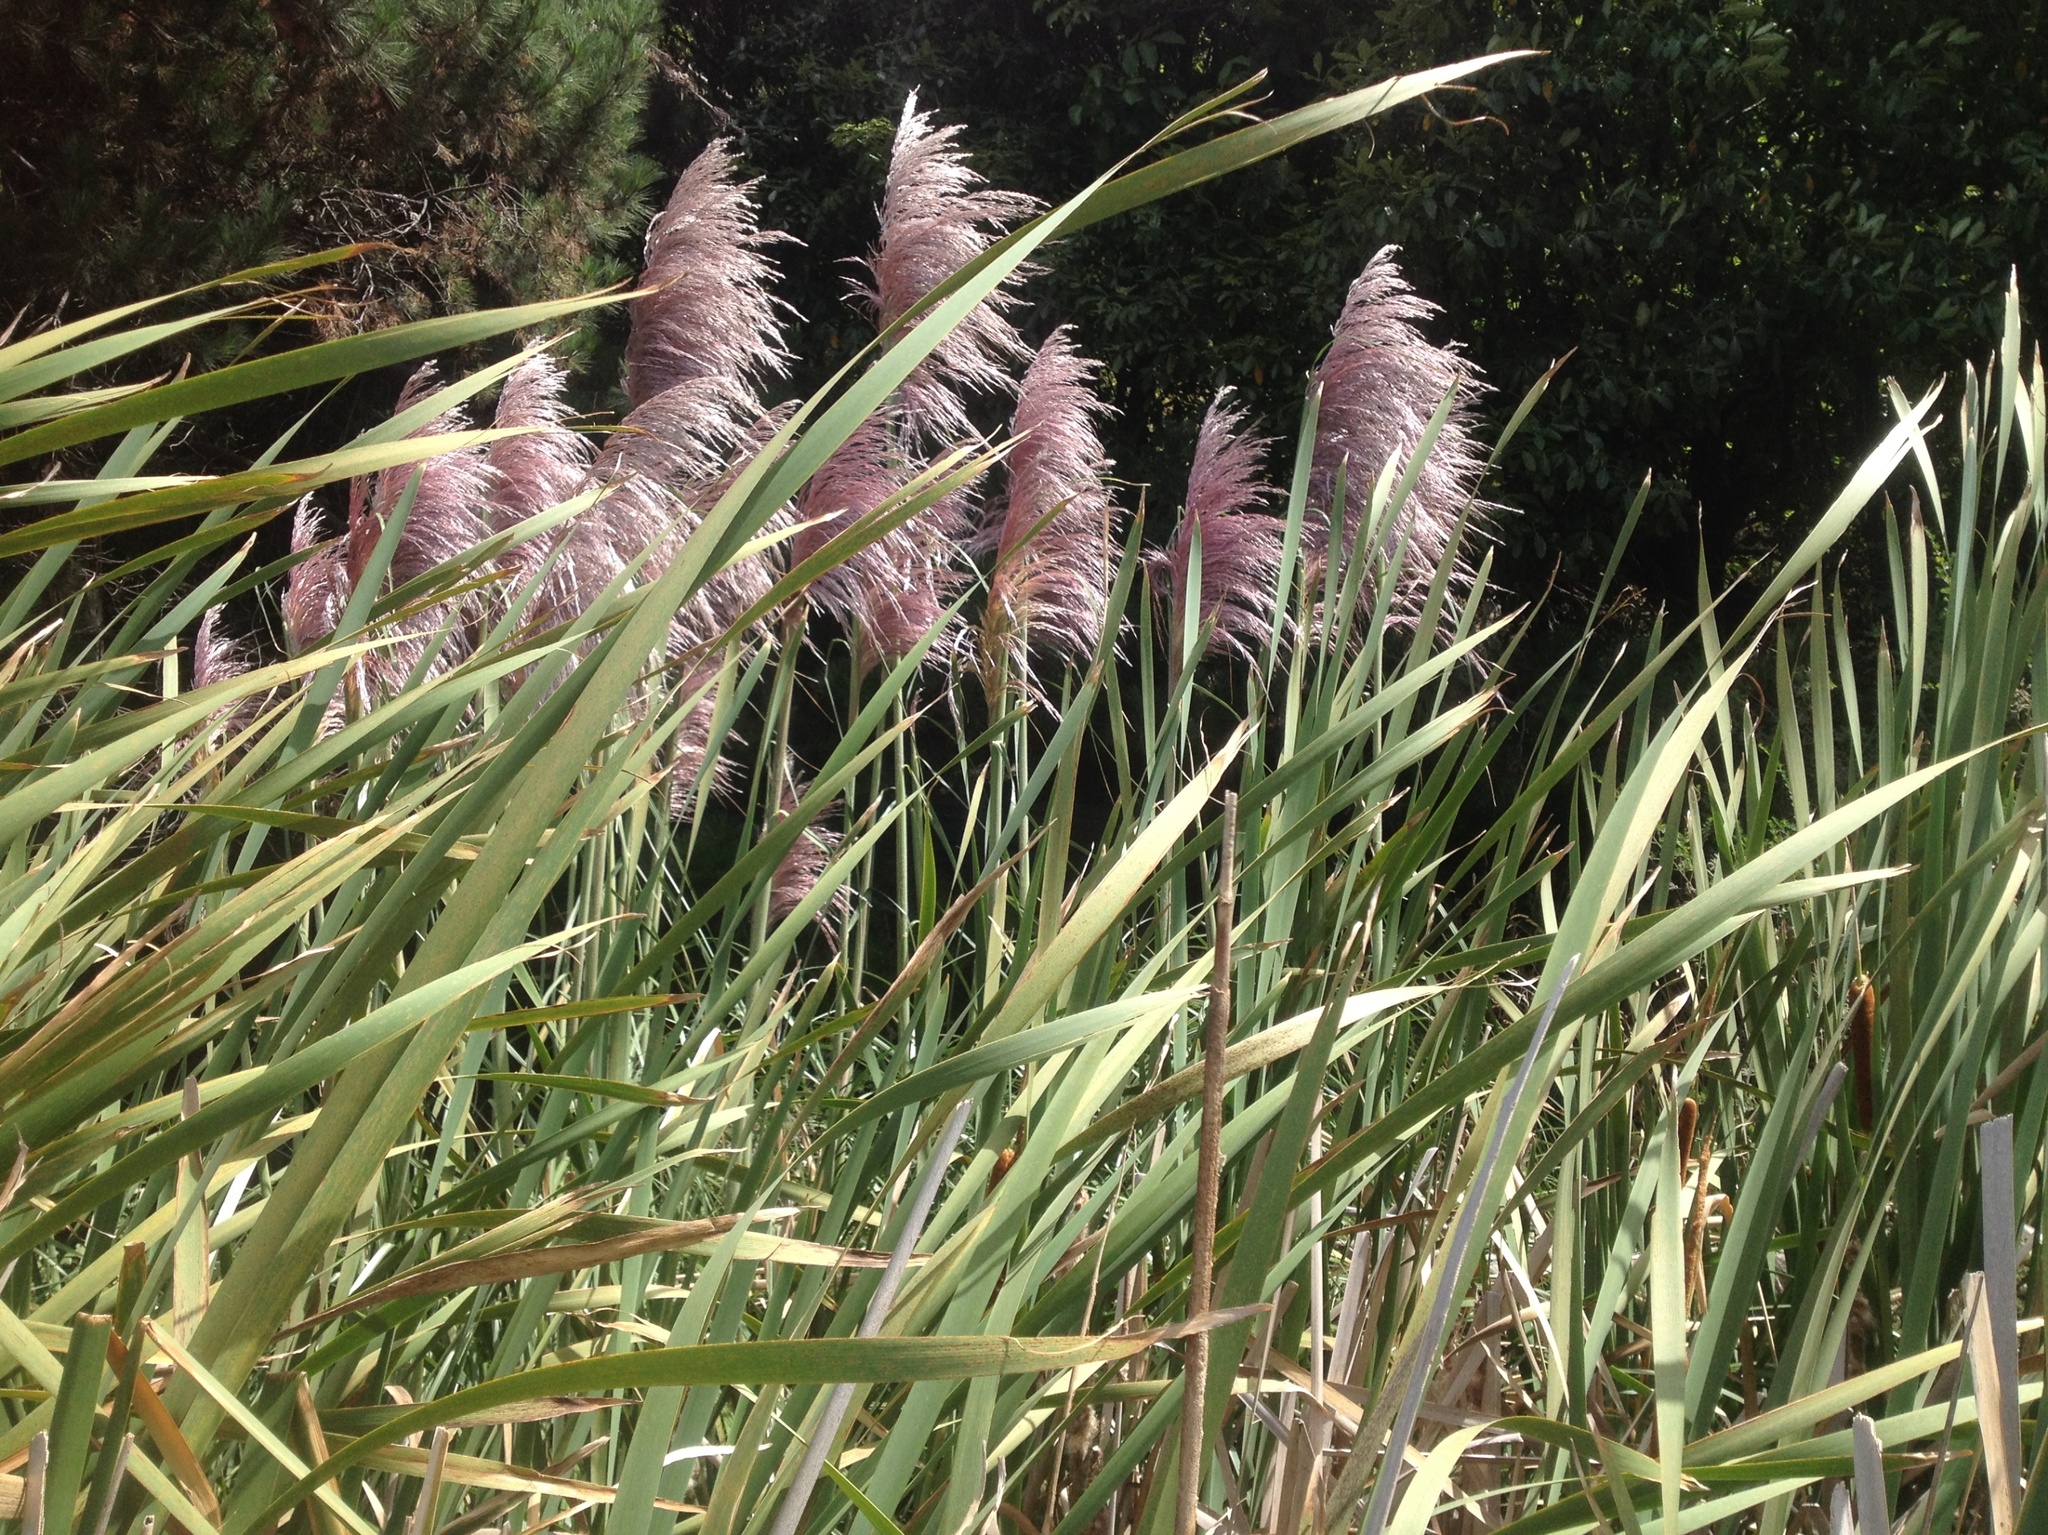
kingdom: Plantae
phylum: Tracheophyta
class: Liliopsida
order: Poales
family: Poaceae
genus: Cortaderia
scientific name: Cortaderia jubata
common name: Purple pampas grass
